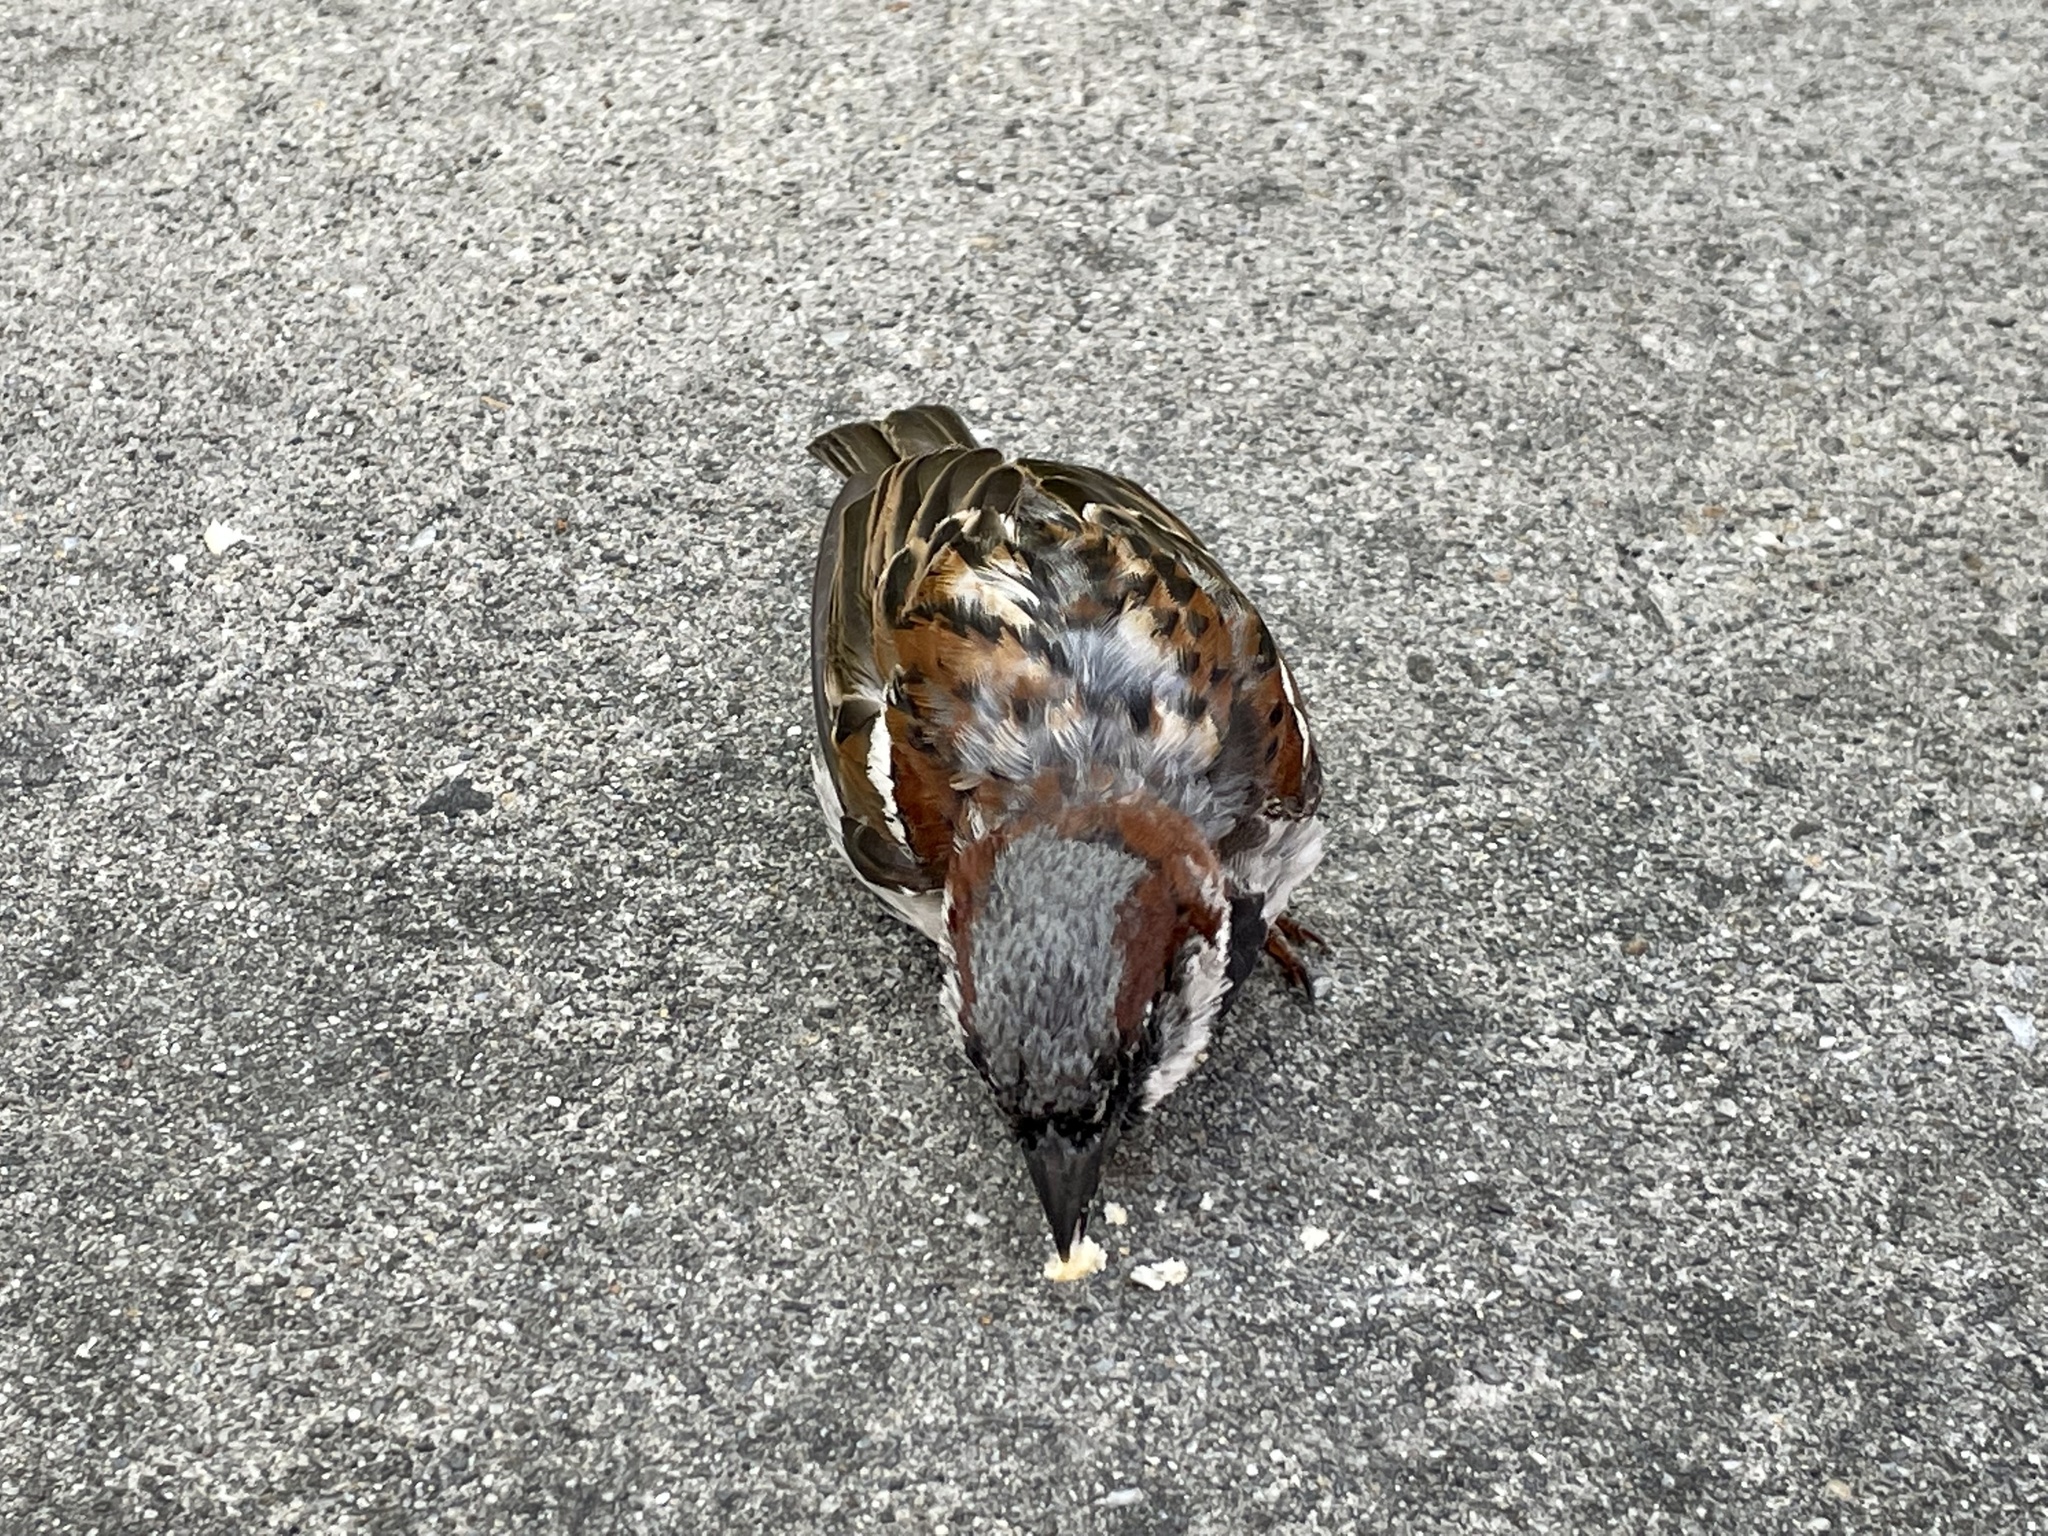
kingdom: Animalia
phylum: Chordata
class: Aves
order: Passeriformes
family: Passeridae
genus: Passer
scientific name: Passer domesticus
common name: House sparrow
